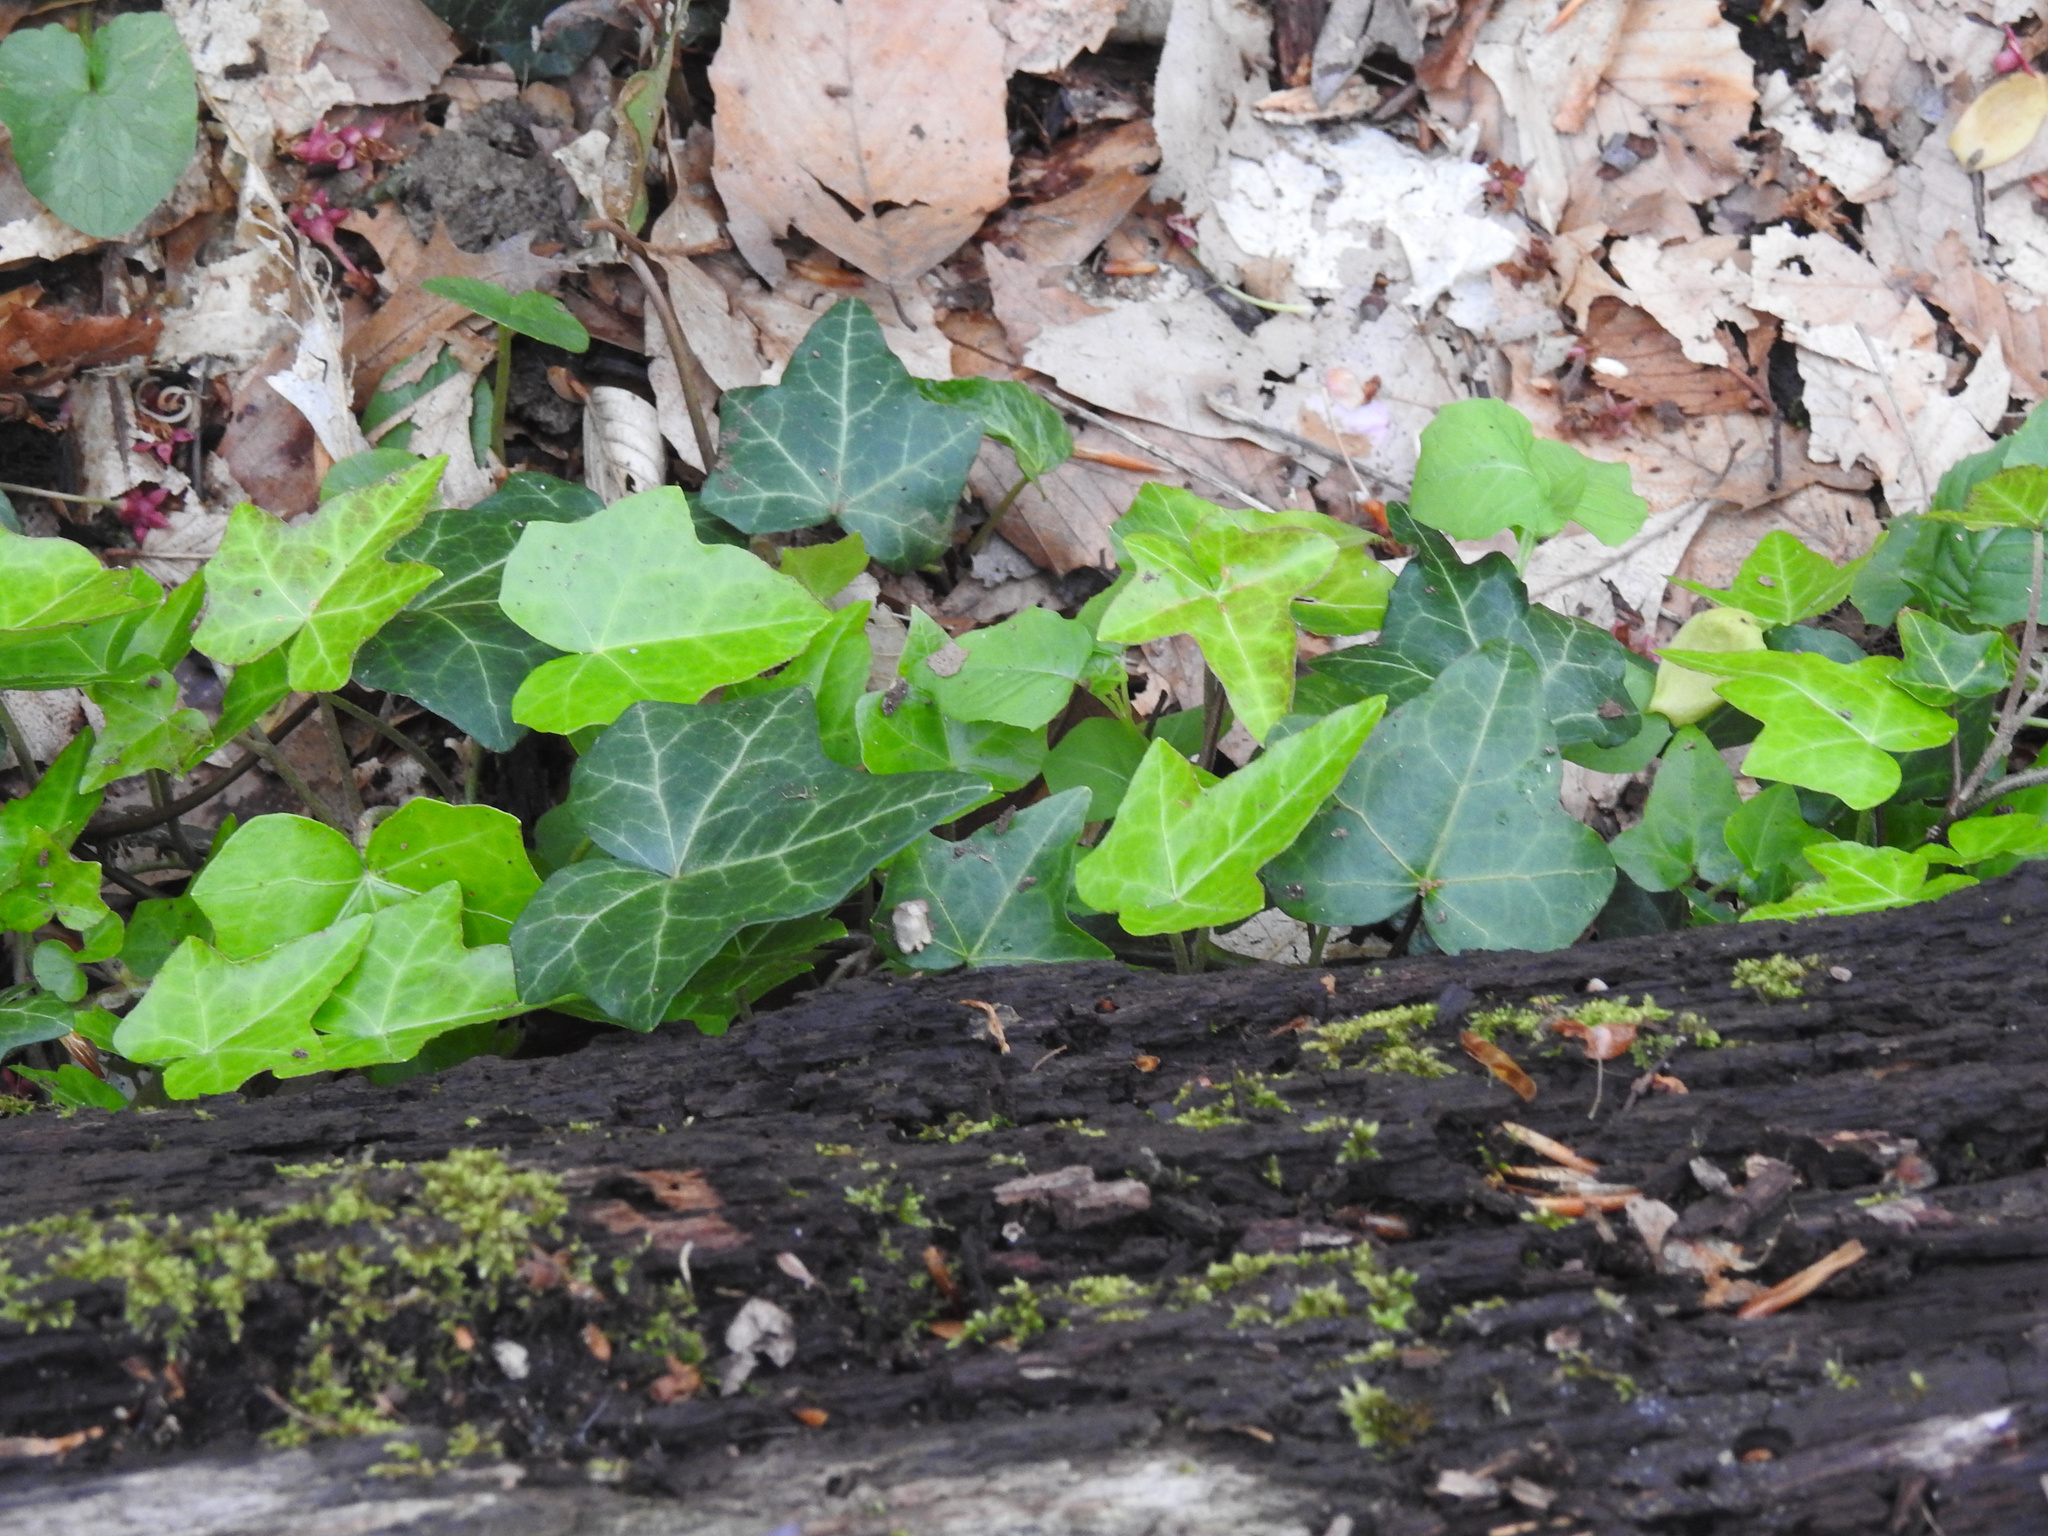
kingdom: Plantae
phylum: Tracheophyta
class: Magnoliopsida
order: Apiales
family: Araliaceae
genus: Hedera
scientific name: Hedera helix
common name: Ivy
